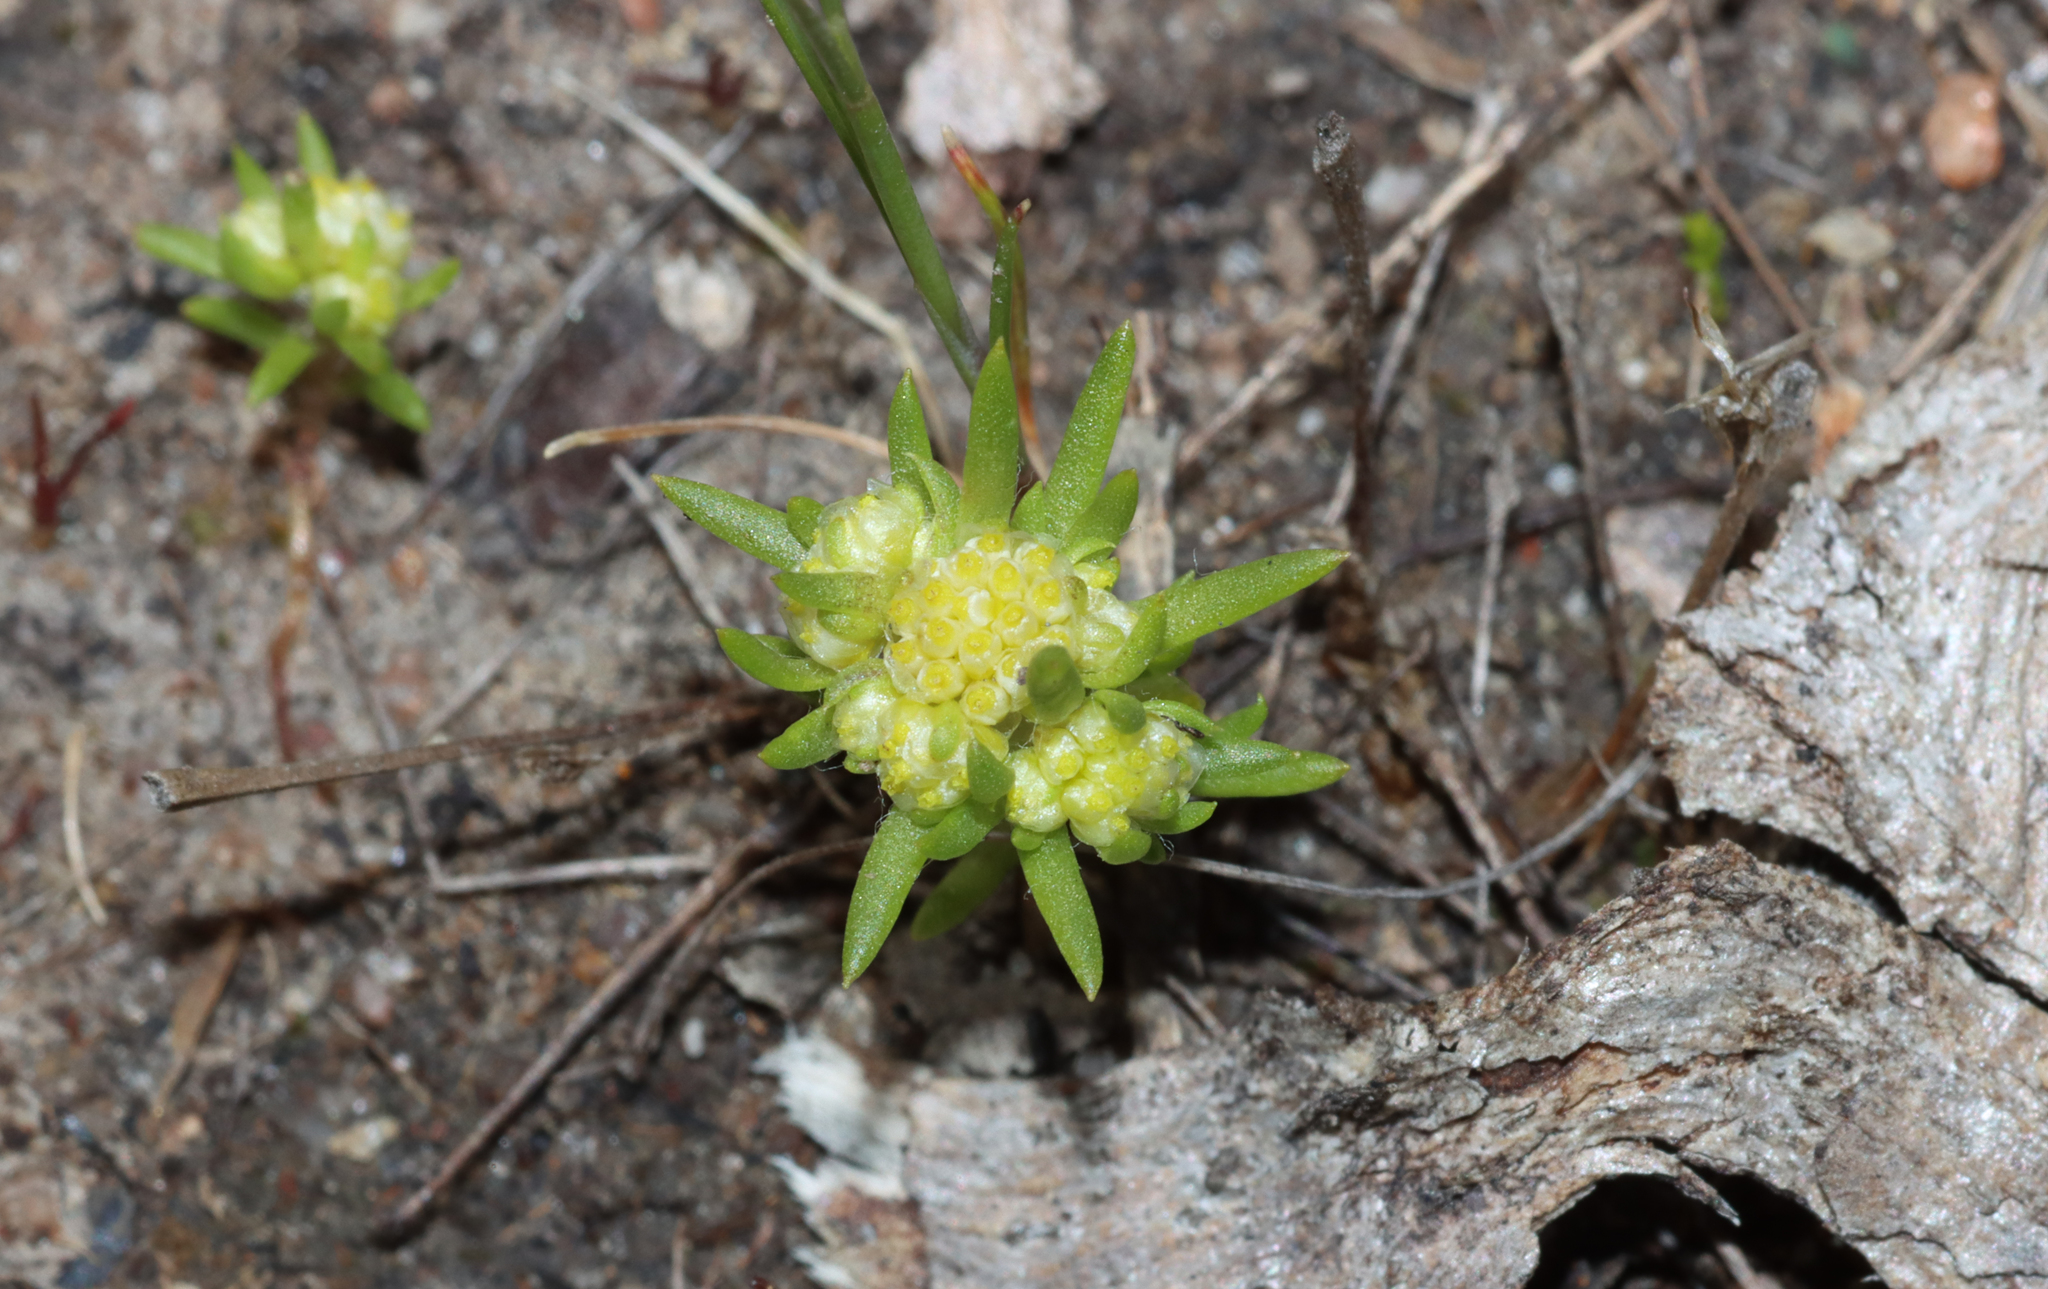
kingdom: Plantae
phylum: Tracheophyta
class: Magnoliopsida
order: Asterales
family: Asteraceae
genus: Siloxerus
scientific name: Siloxerus multiflorus
